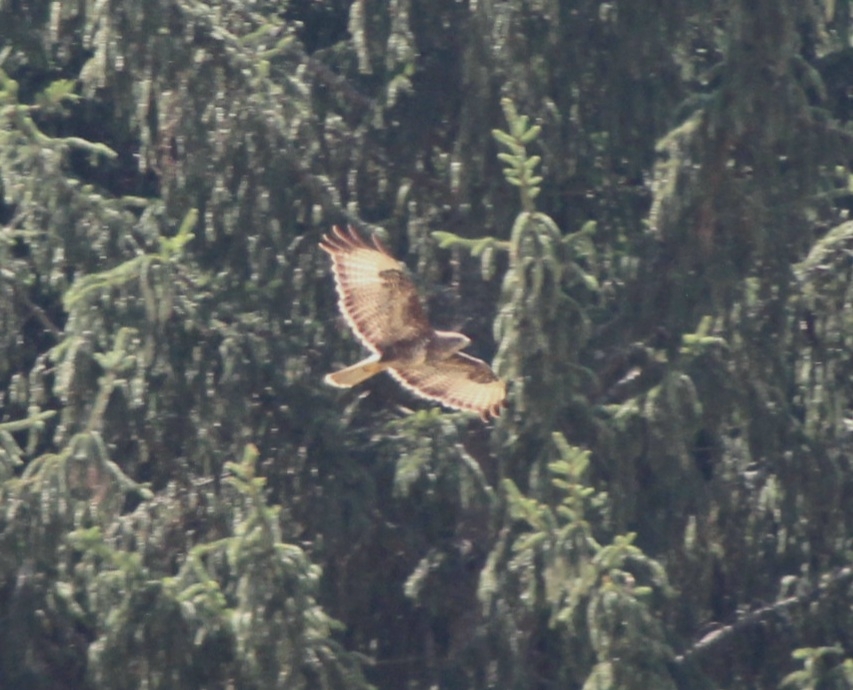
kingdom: Animalia
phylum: Chordata
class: Aves
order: Accipitriformes
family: Accipitridae
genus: Buteo
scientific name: Buteo buteo
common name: Common buzzard
